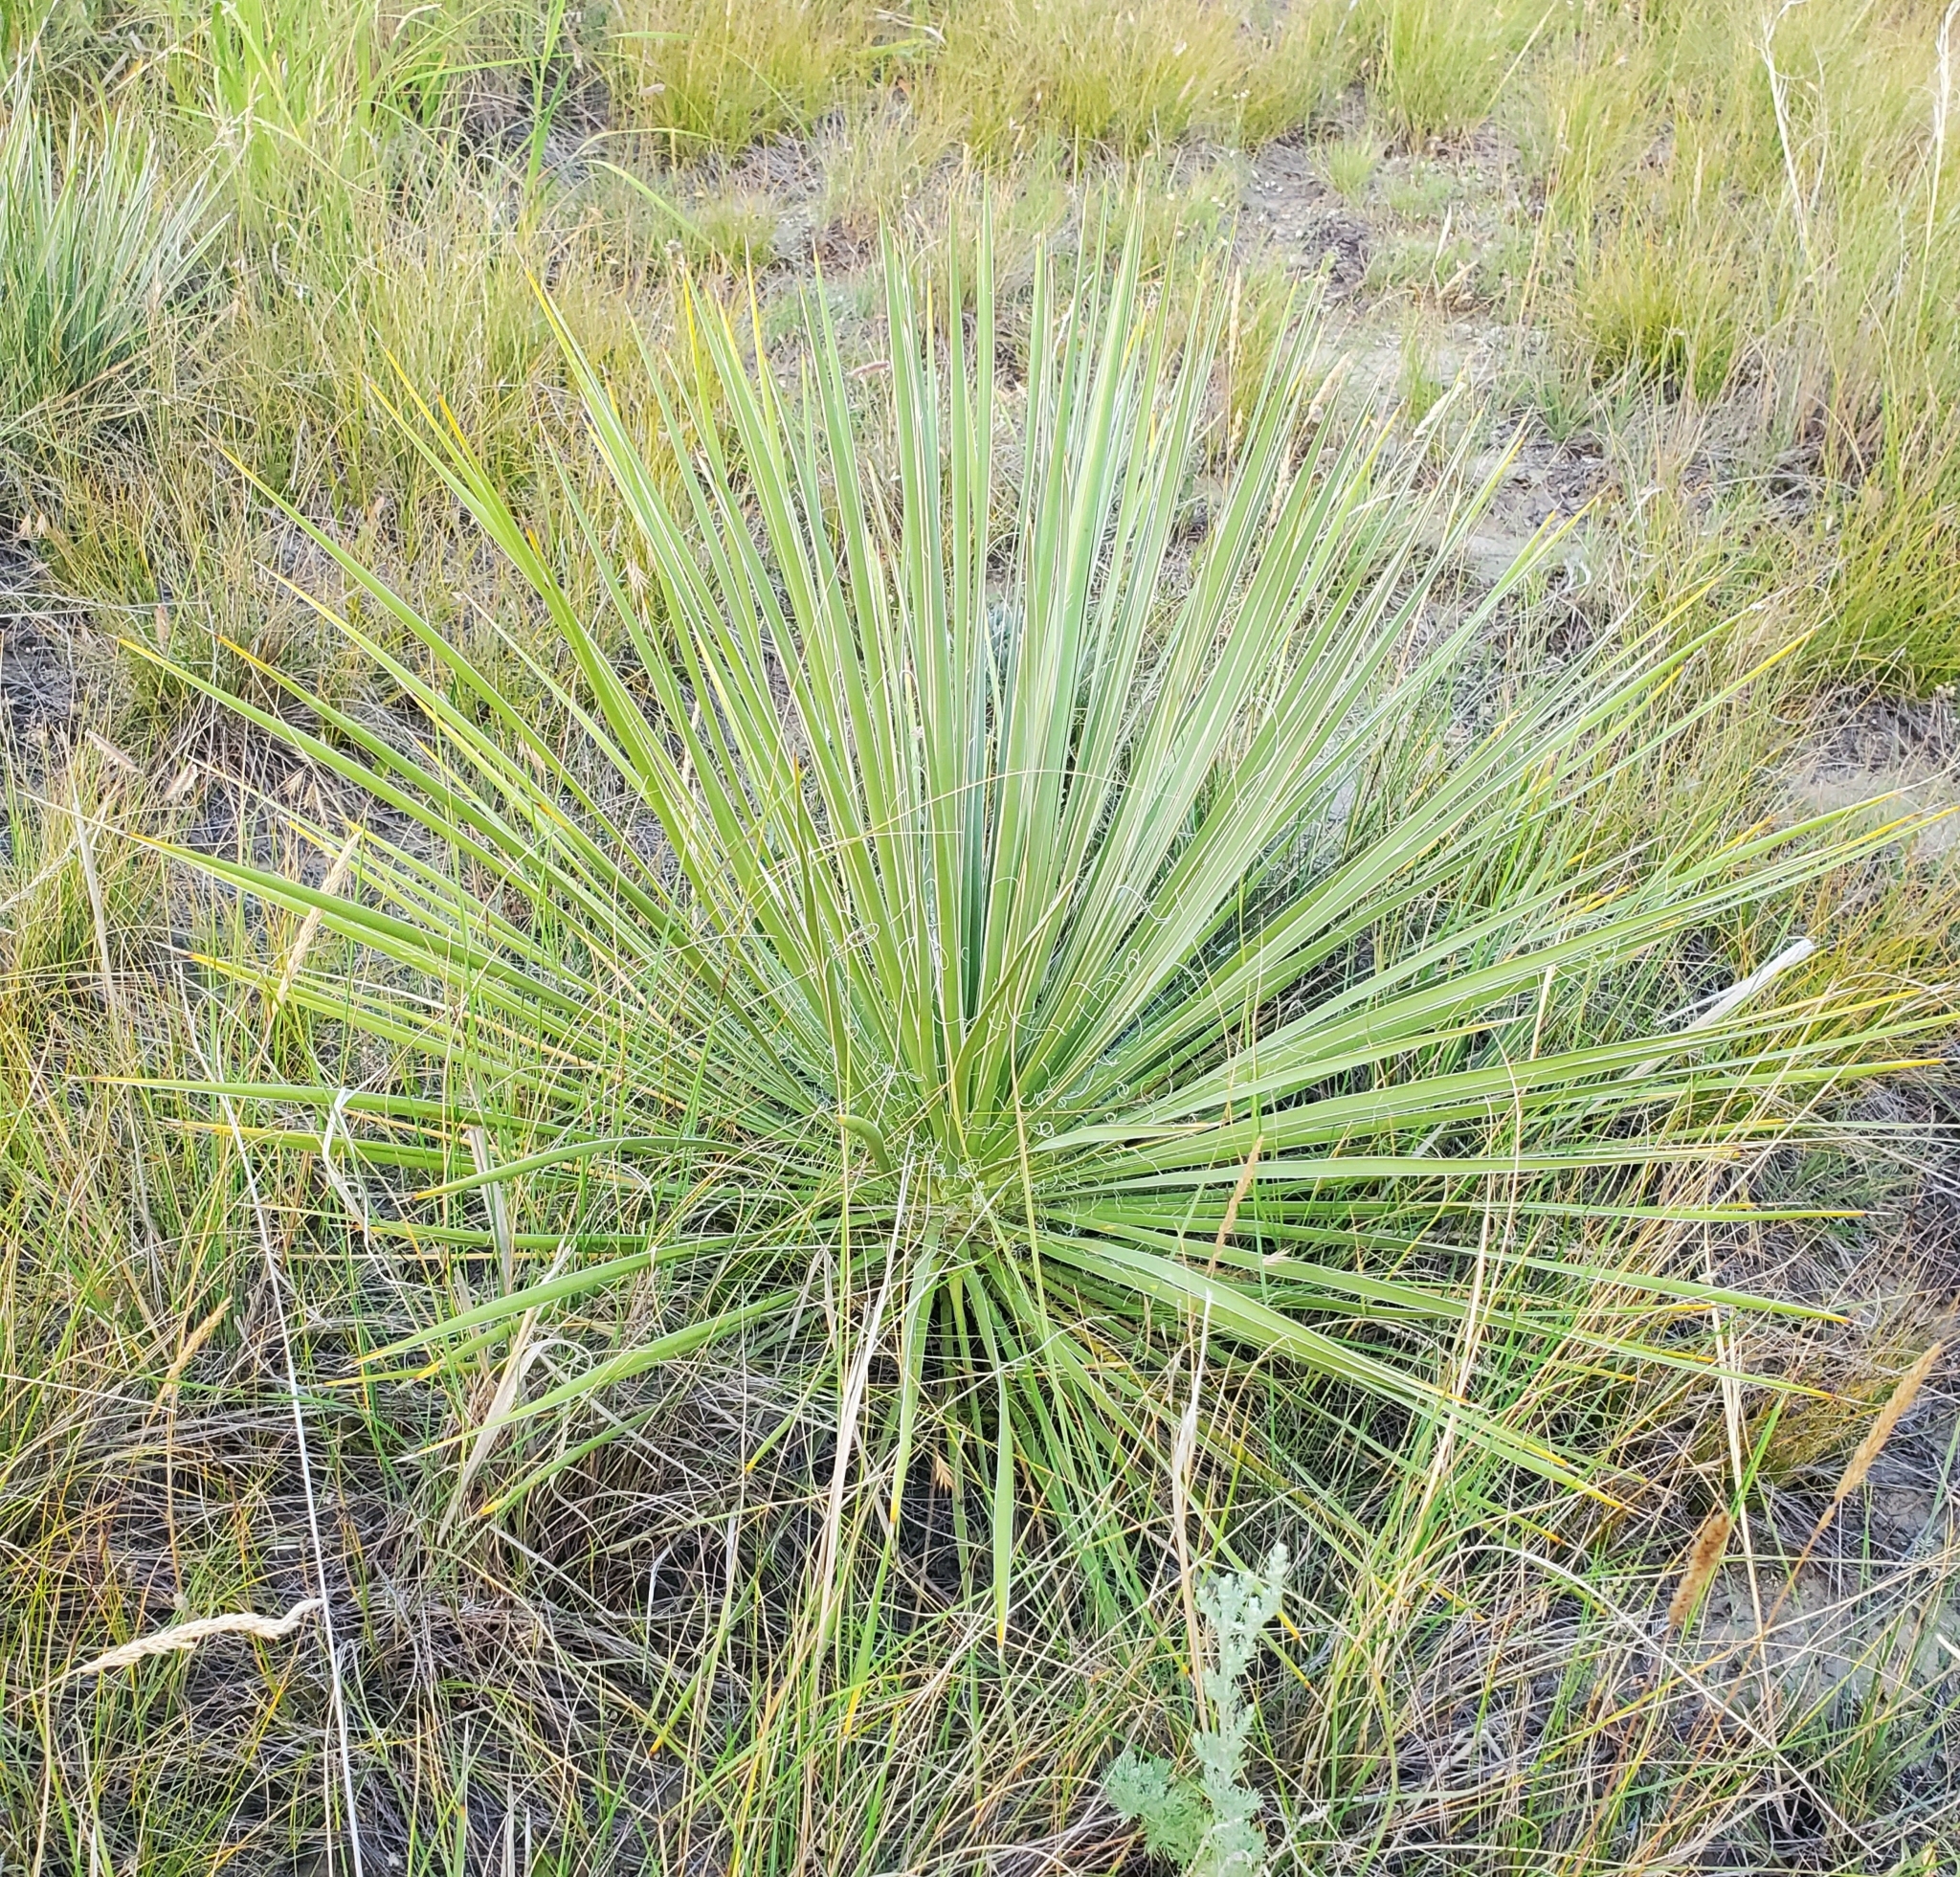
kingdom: Plantae
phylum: Tracheophyta
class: Liliopsida
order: Asparagales
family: Asparagaceae
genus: Yucca
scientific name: Yucca glauca
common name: Great plains yucca
